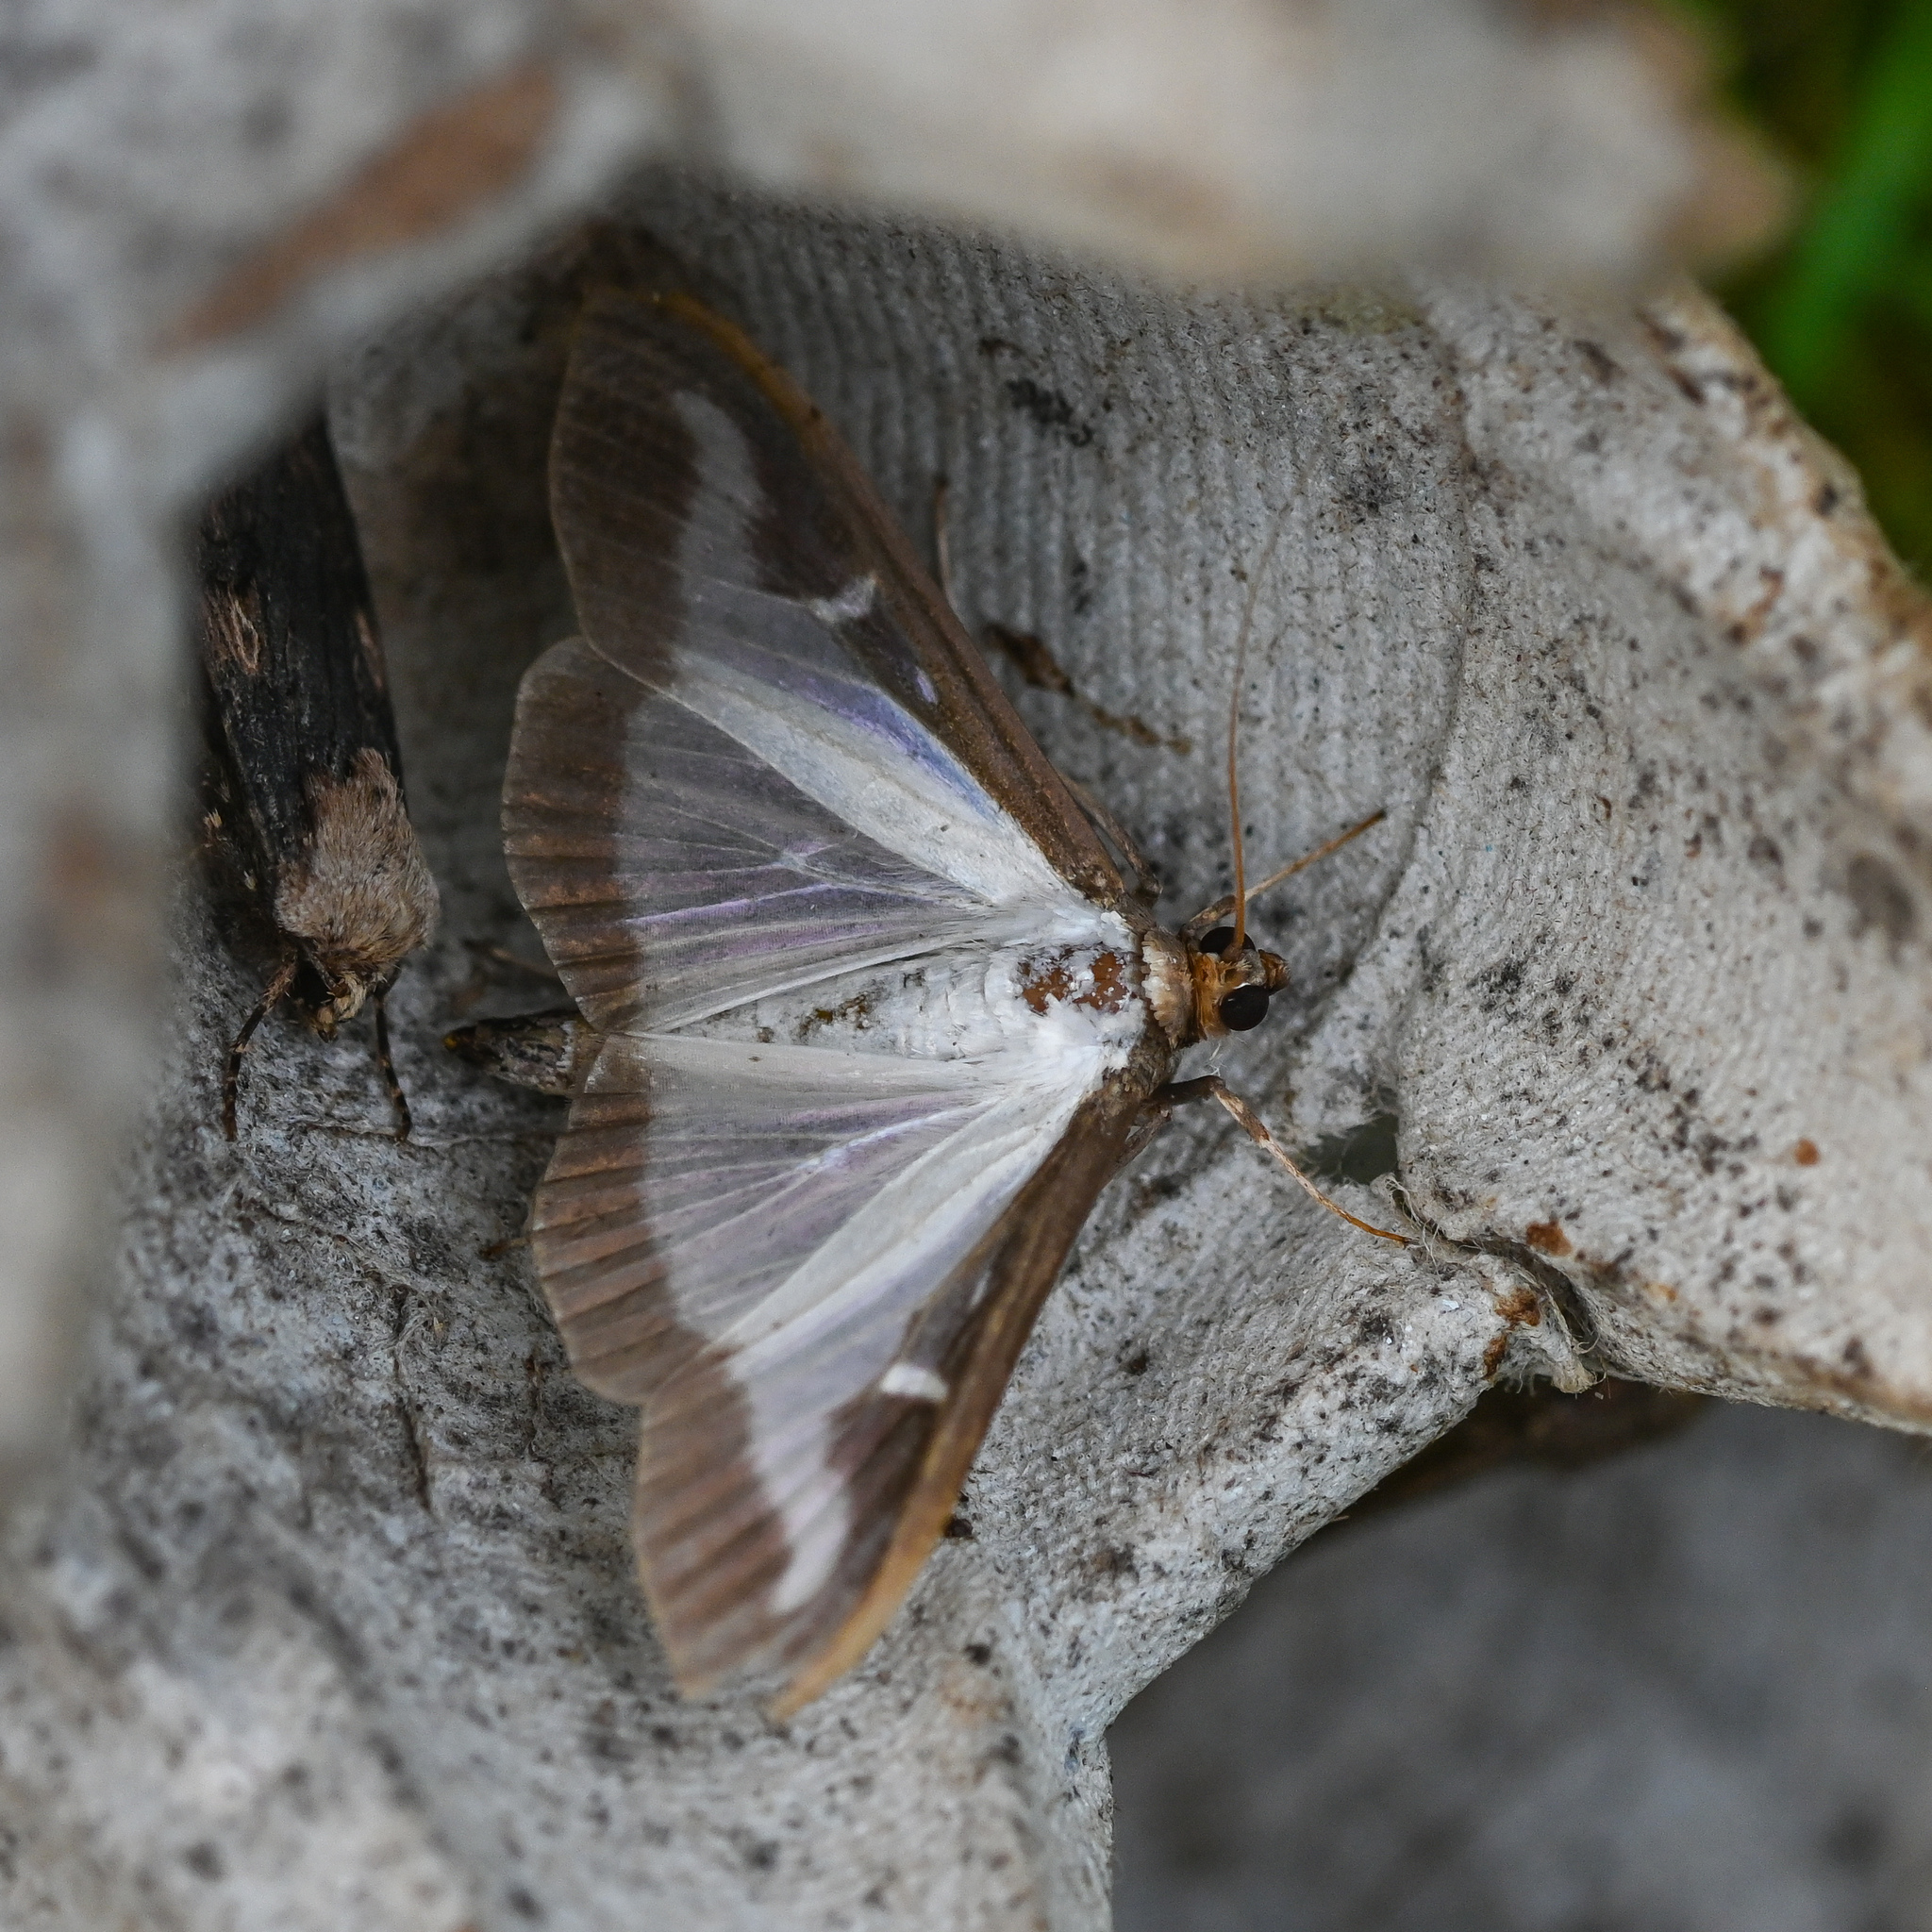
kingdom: Animalia
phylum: Arthropoda
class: Insecta
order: Lepidoptera
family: Crambidae
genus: Cydalima
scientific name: Cydalima perspectalis
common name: Box tree moth
